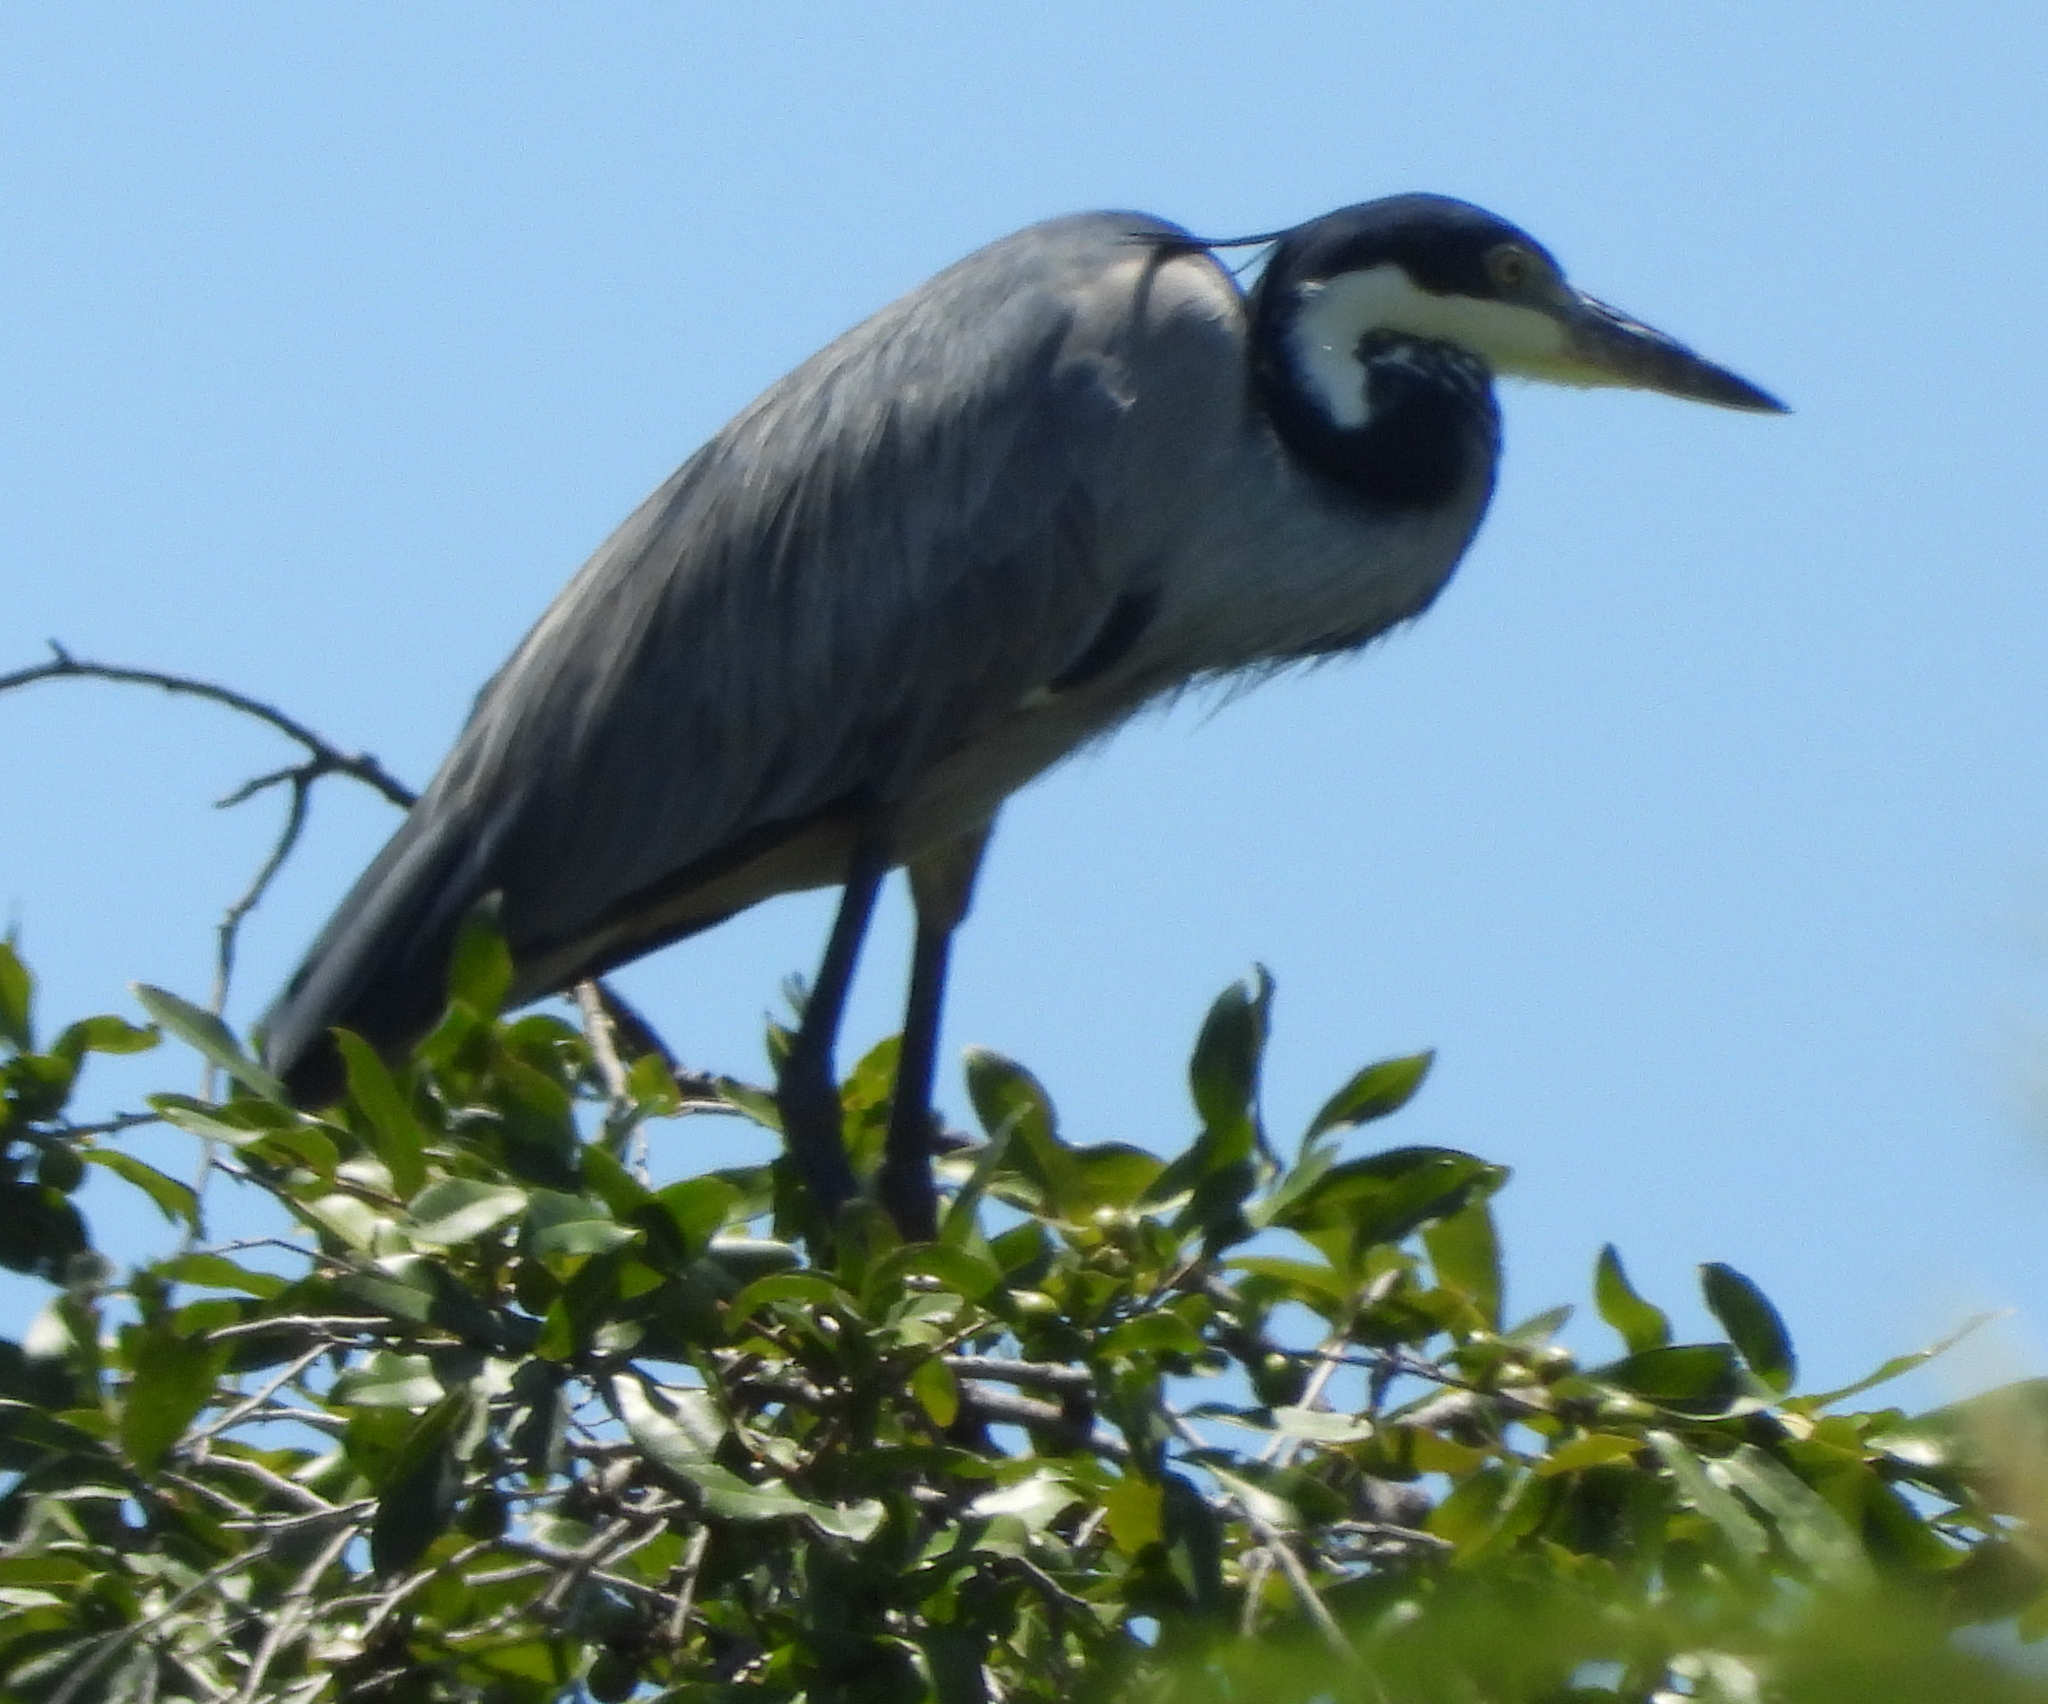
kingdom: Animalia
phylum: Chordata
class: Aves
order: Pelecaniformes
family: Ardeidae
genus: Ardea
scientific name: Ardea melanocephala
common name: Black-headed heron
